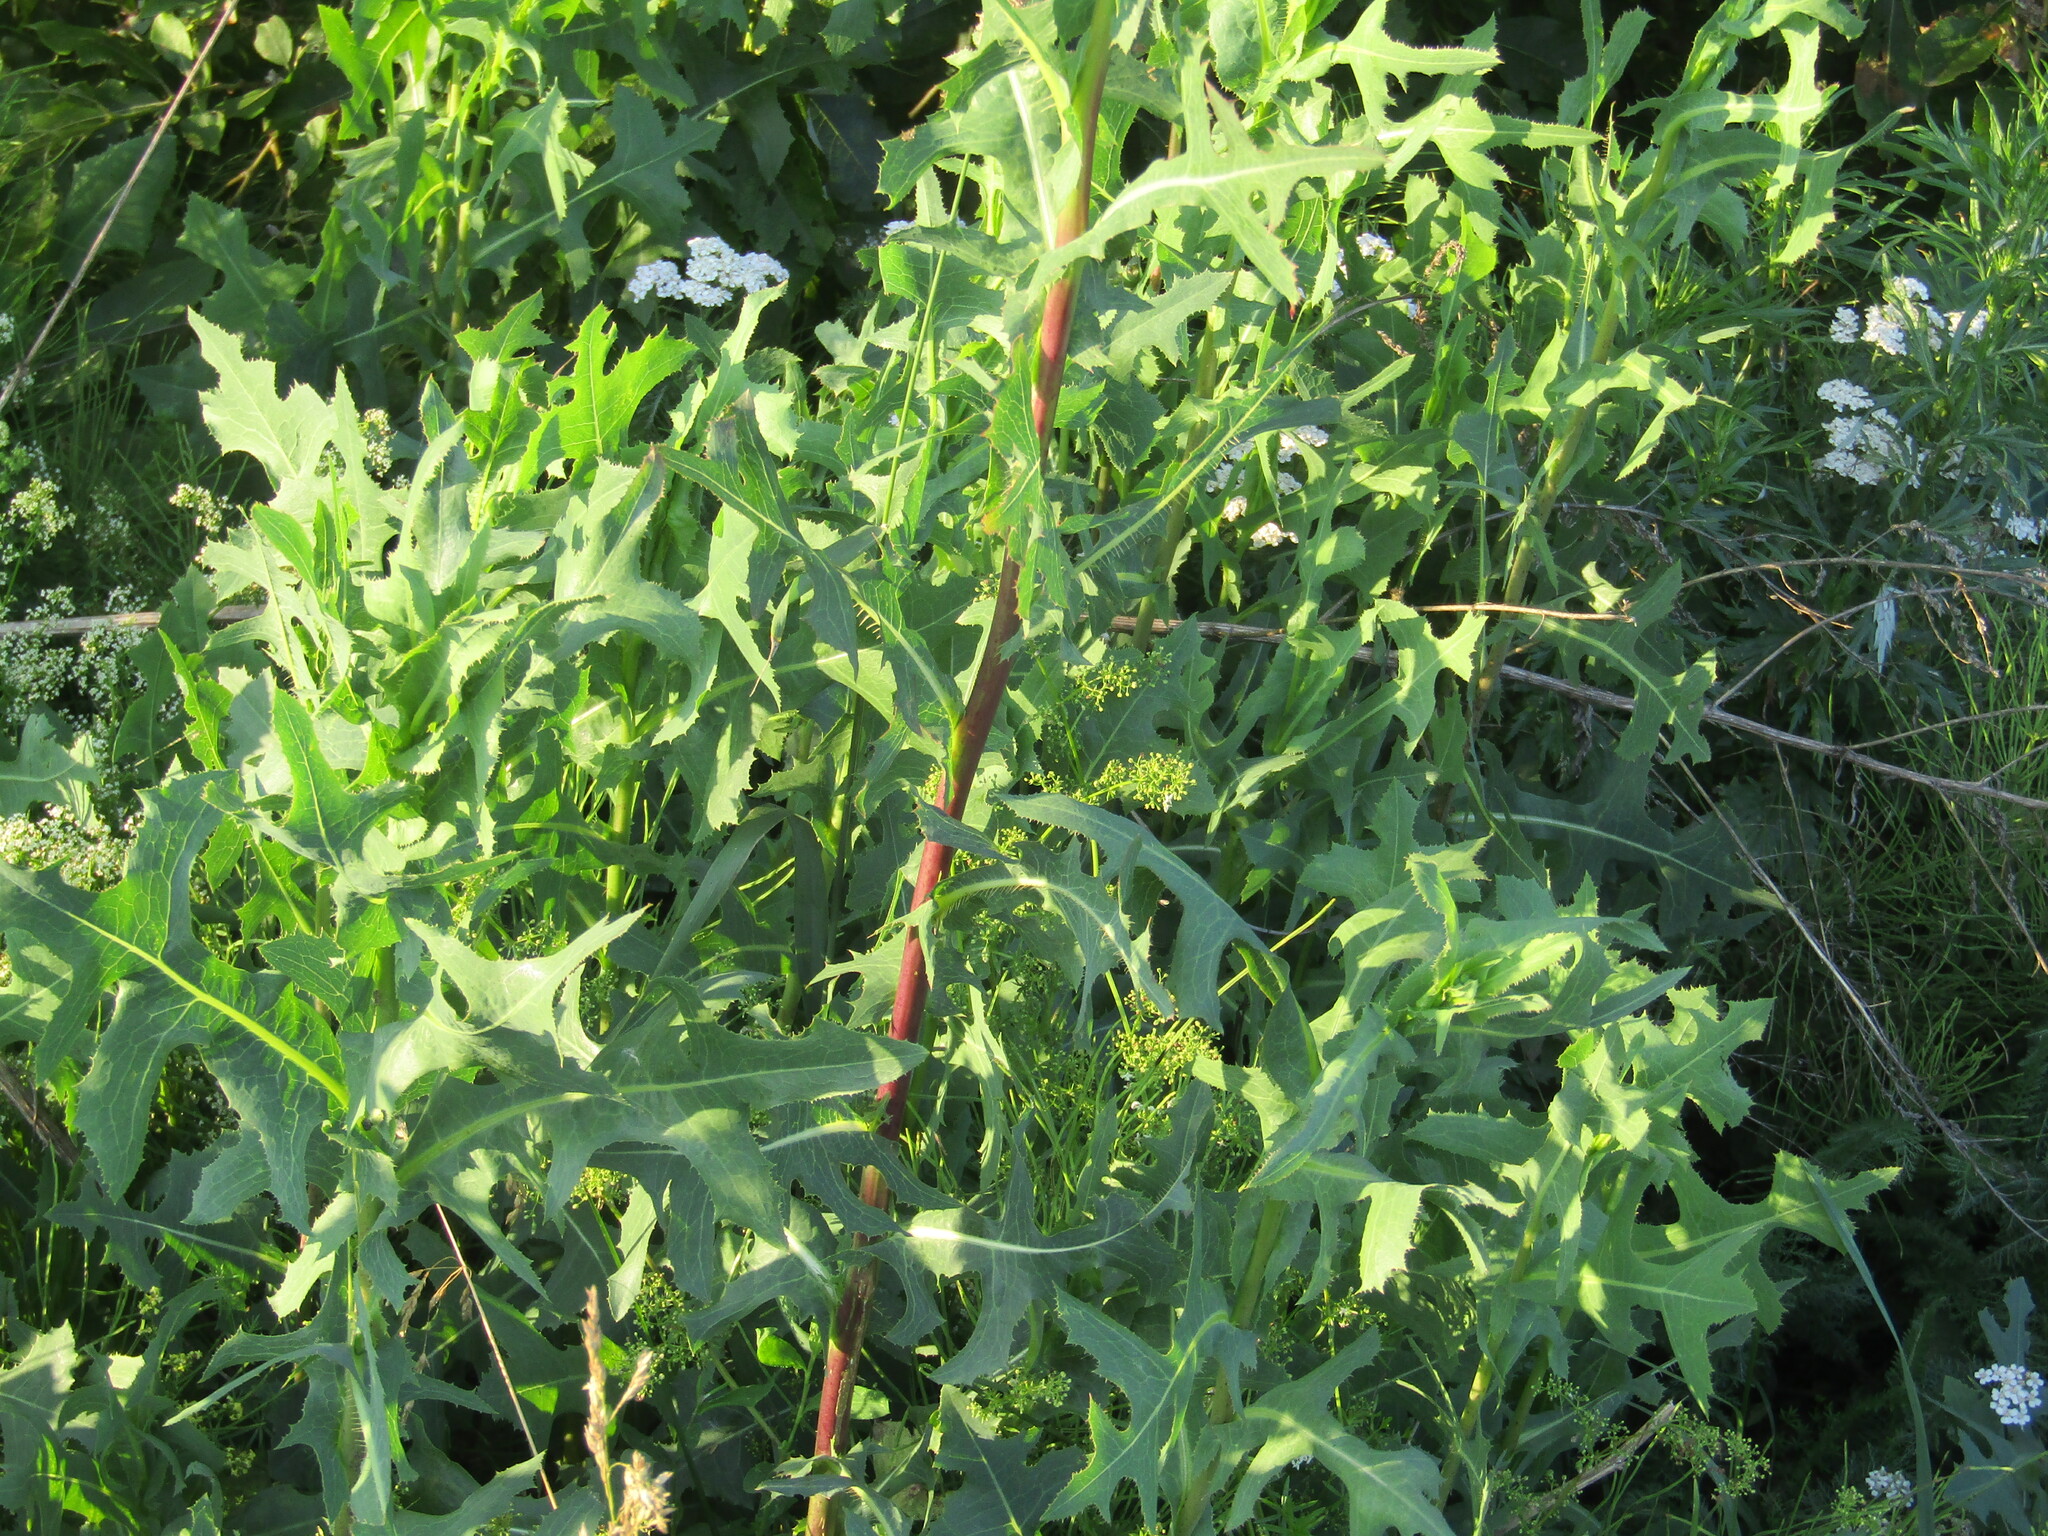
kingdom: Plantae
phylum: Tracheophyta
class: Magnoliopsida
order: Asterales
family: Asteraceae
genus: Lactuca
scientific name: Lactuca serriola
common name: Prickly lettuce
